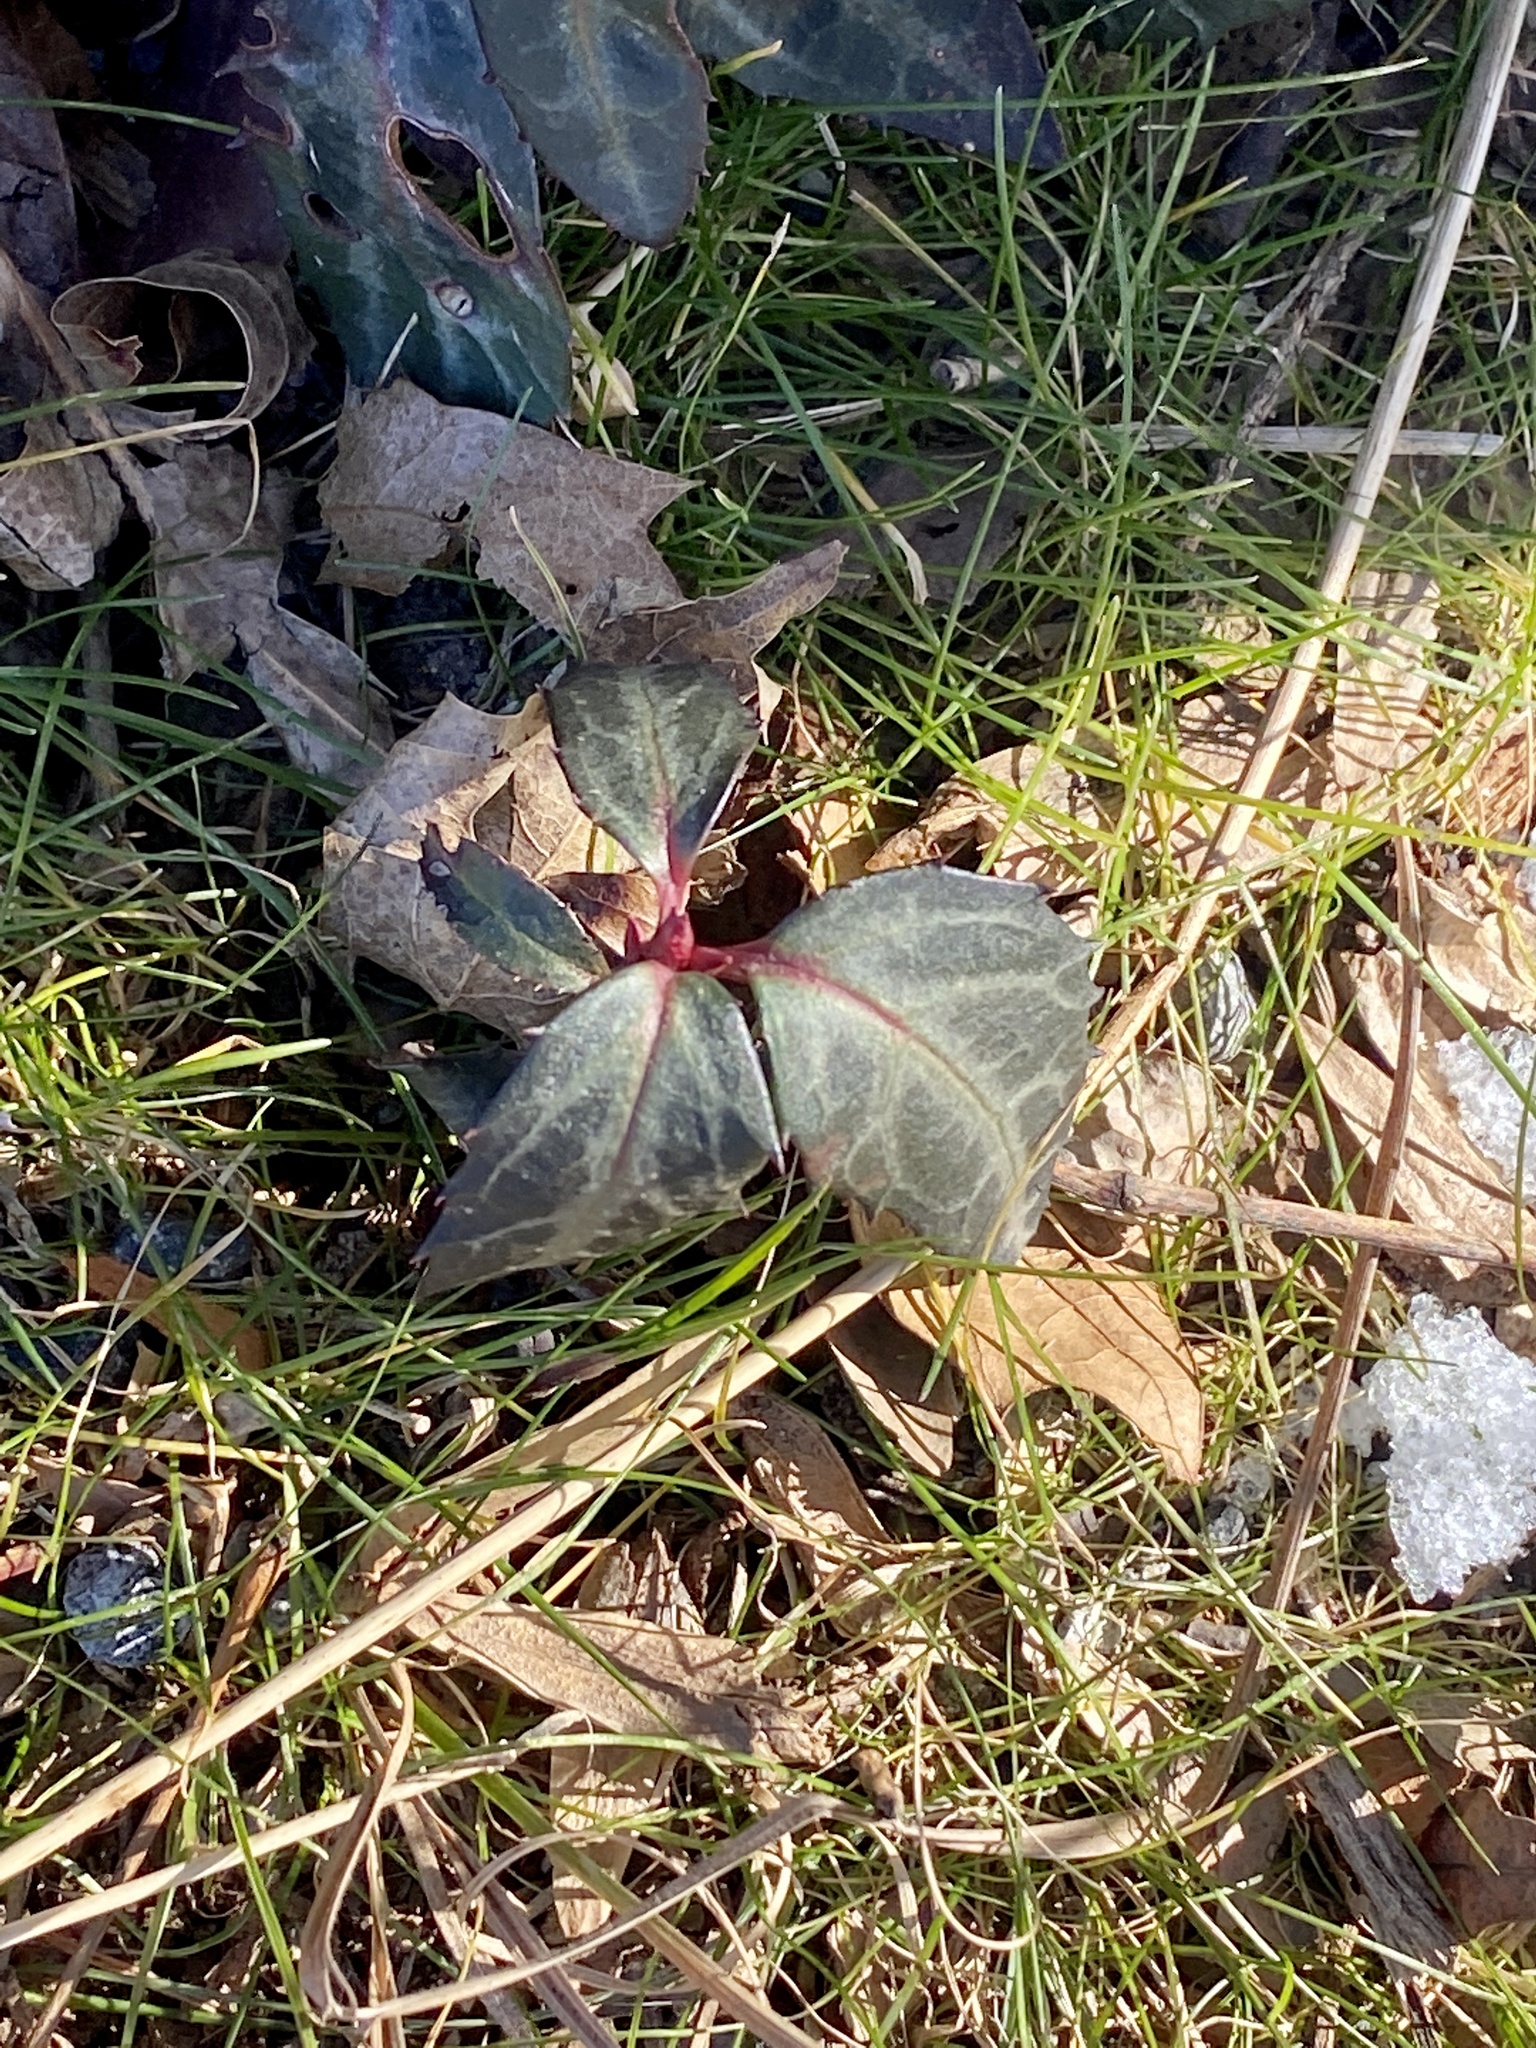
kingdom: Plantae
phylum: Tracheophyta
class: Magnoliopsida
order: Ericales
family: Ericaceae
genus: Chimaphila
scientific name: Chimaphila maculata
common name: Spotted pipsissewa
